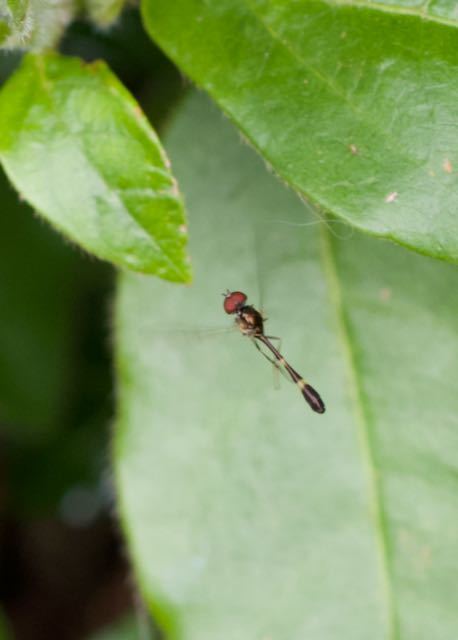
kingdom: Animalia
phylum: Arthropoda
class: Insecta
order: Diptera
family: Syrphidae
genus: Baccha
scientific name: Baccha elongata
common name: Common dainty
